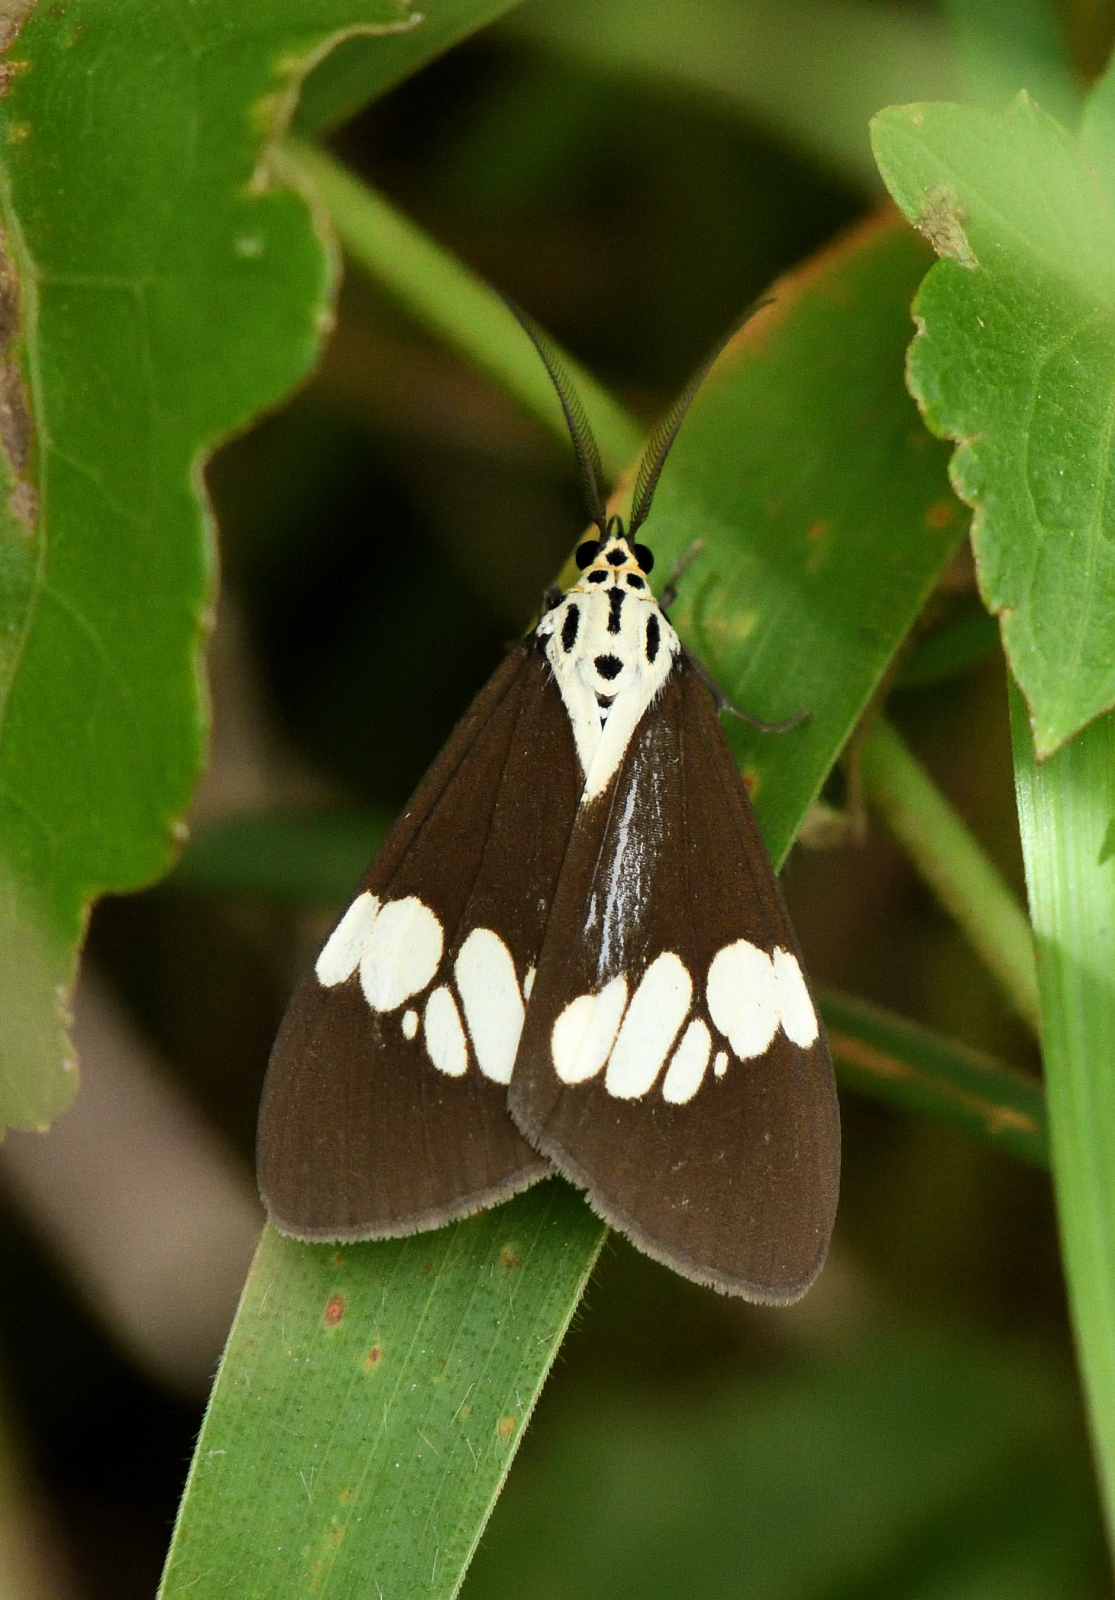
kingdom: Animalia
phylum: Arthropoda
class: Insecta
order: Lepidoptera
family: Erebidae
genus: Nyctemera
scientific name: Nyctemera lacticinia
